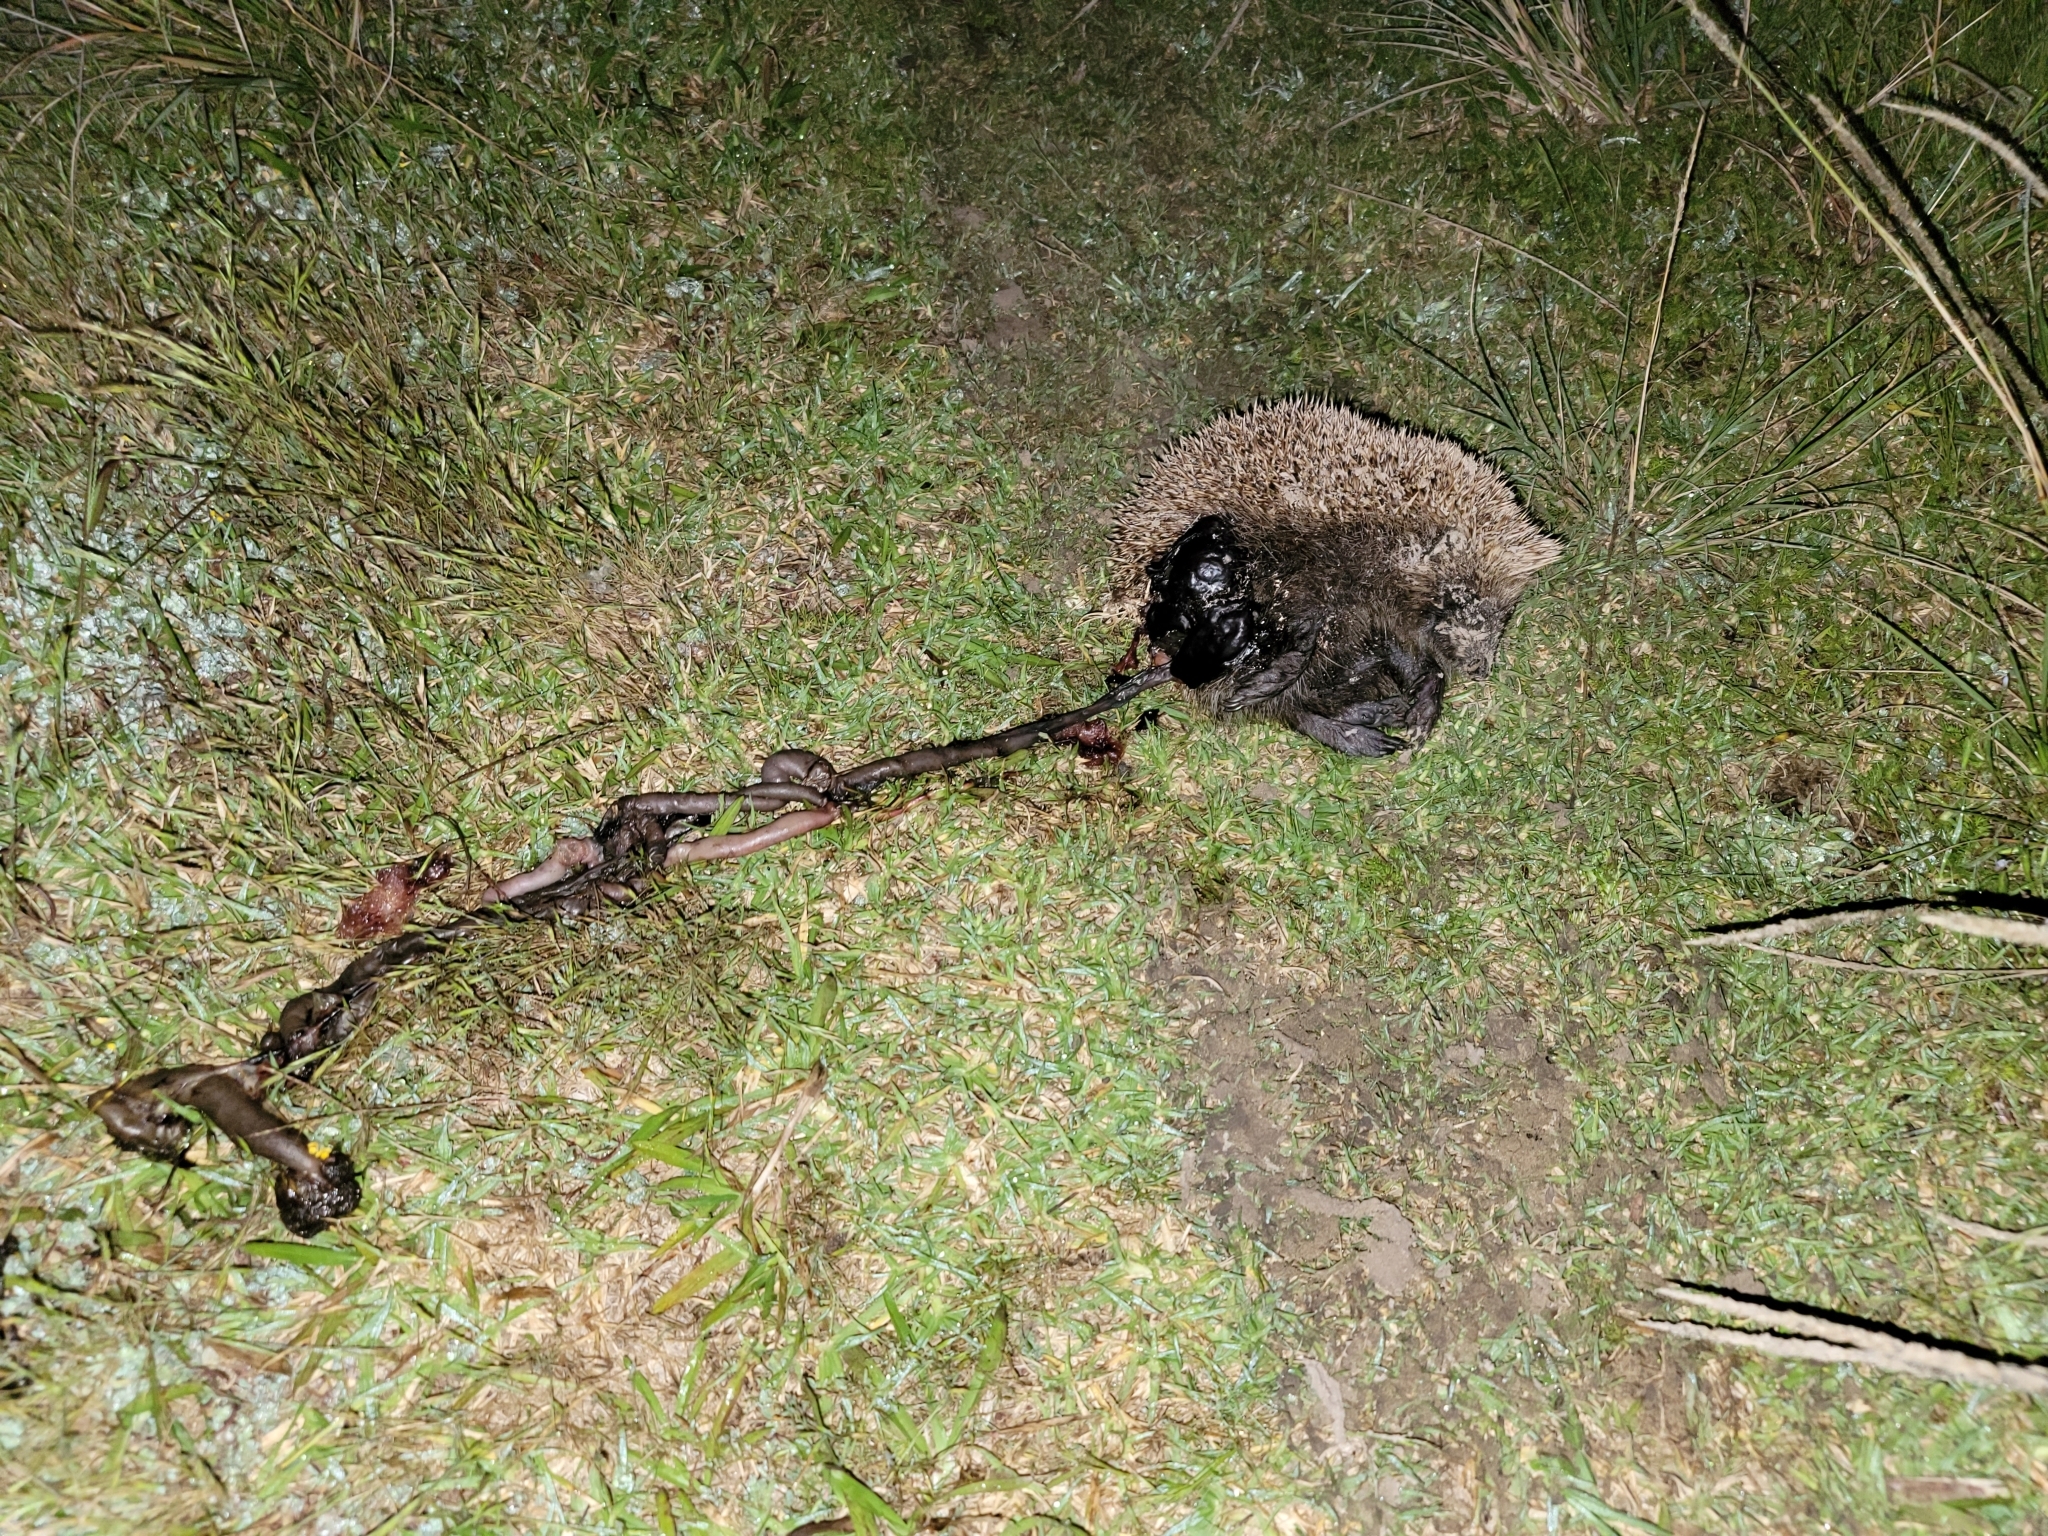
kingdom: Animalia
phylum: Chordata
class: Mammalia
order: Erinaceomorpha
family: Erinaceidae
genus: Erinaceus
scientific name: Erinaceus europaeus
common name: West european hedgehog
